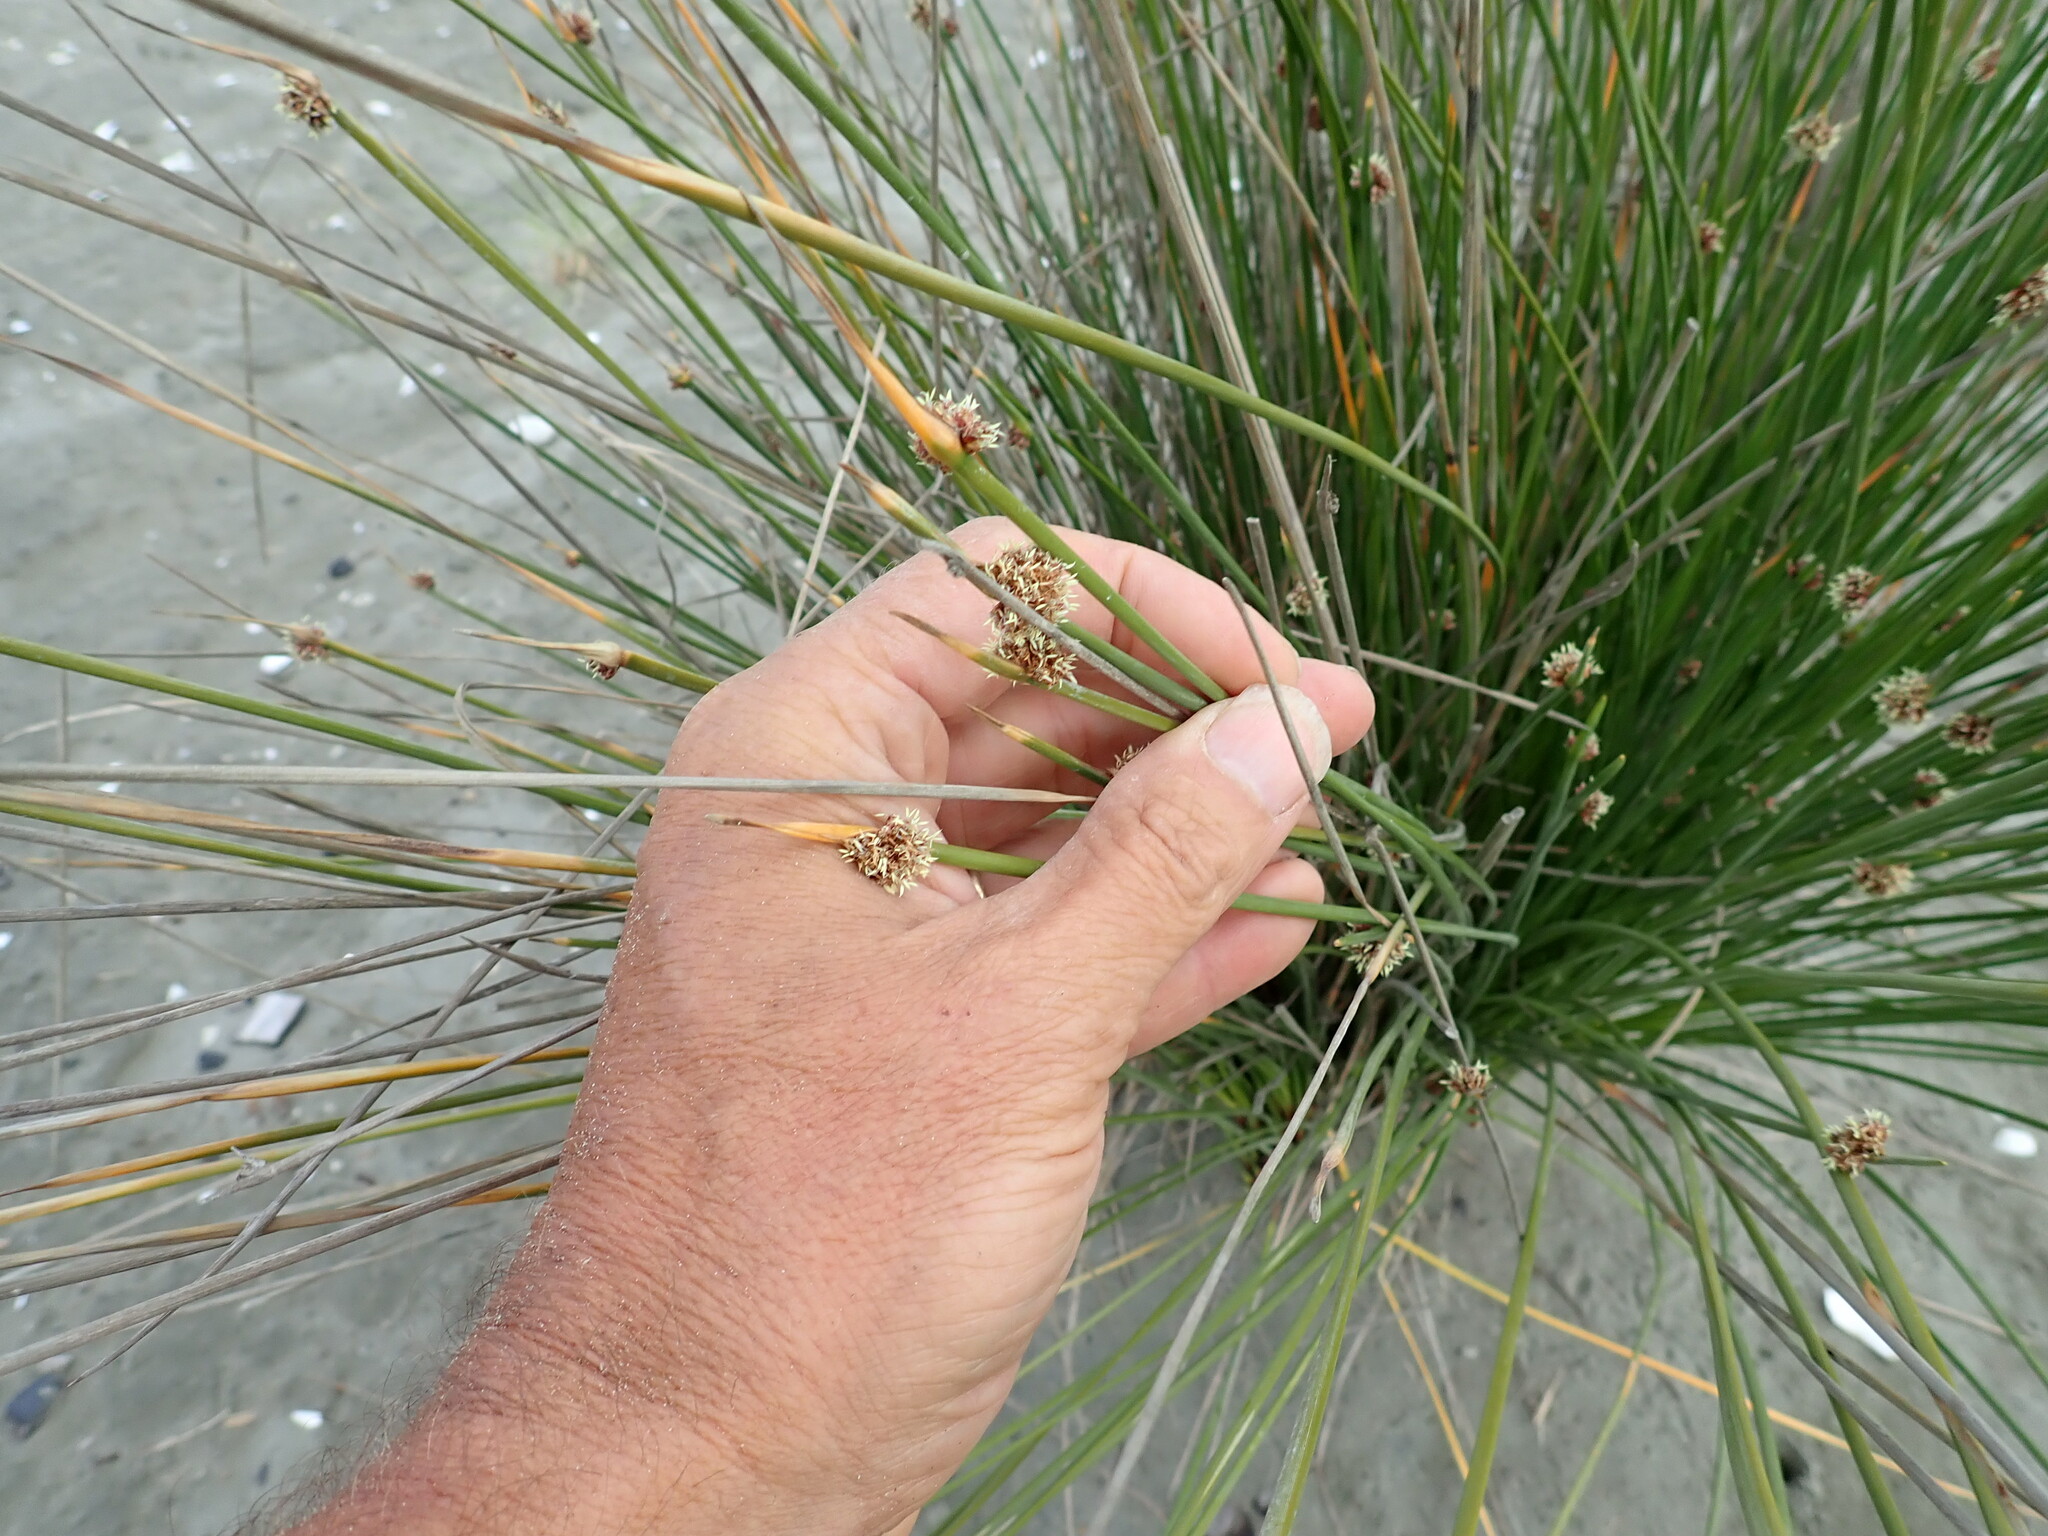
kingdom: Plantae
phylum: Tracheophyta
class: Liliopsida
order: Poales
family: Cyperaceae
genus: Ficinia
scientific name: Ficinia nodosa
